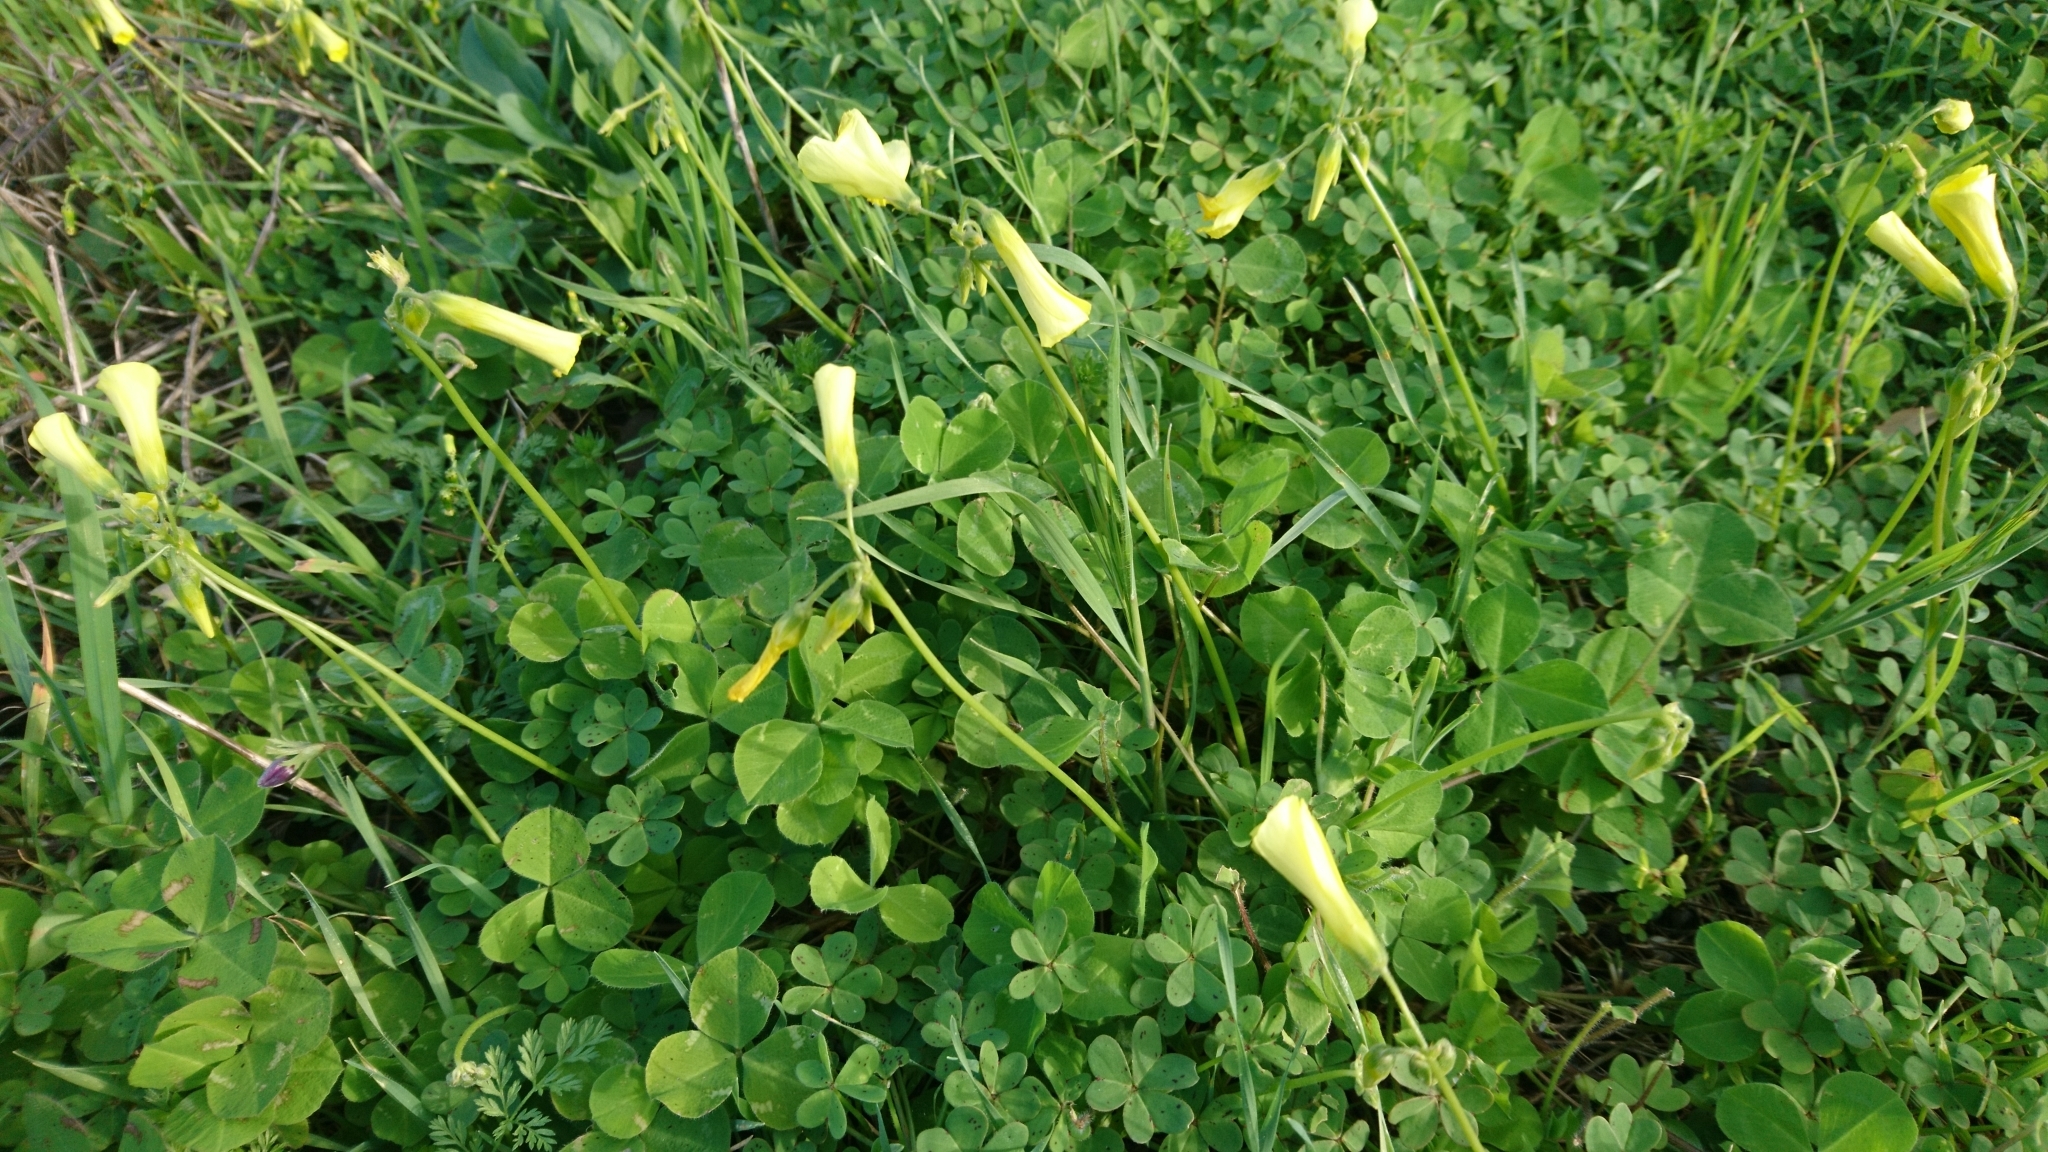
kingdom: Plantae
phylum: Tracheophyta
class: Magnoliopsida
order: Oxalidales
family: Oxalidaceae
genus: Oxalis
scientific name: Oxalis pes-caprae
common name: Bermuda-buttercup
